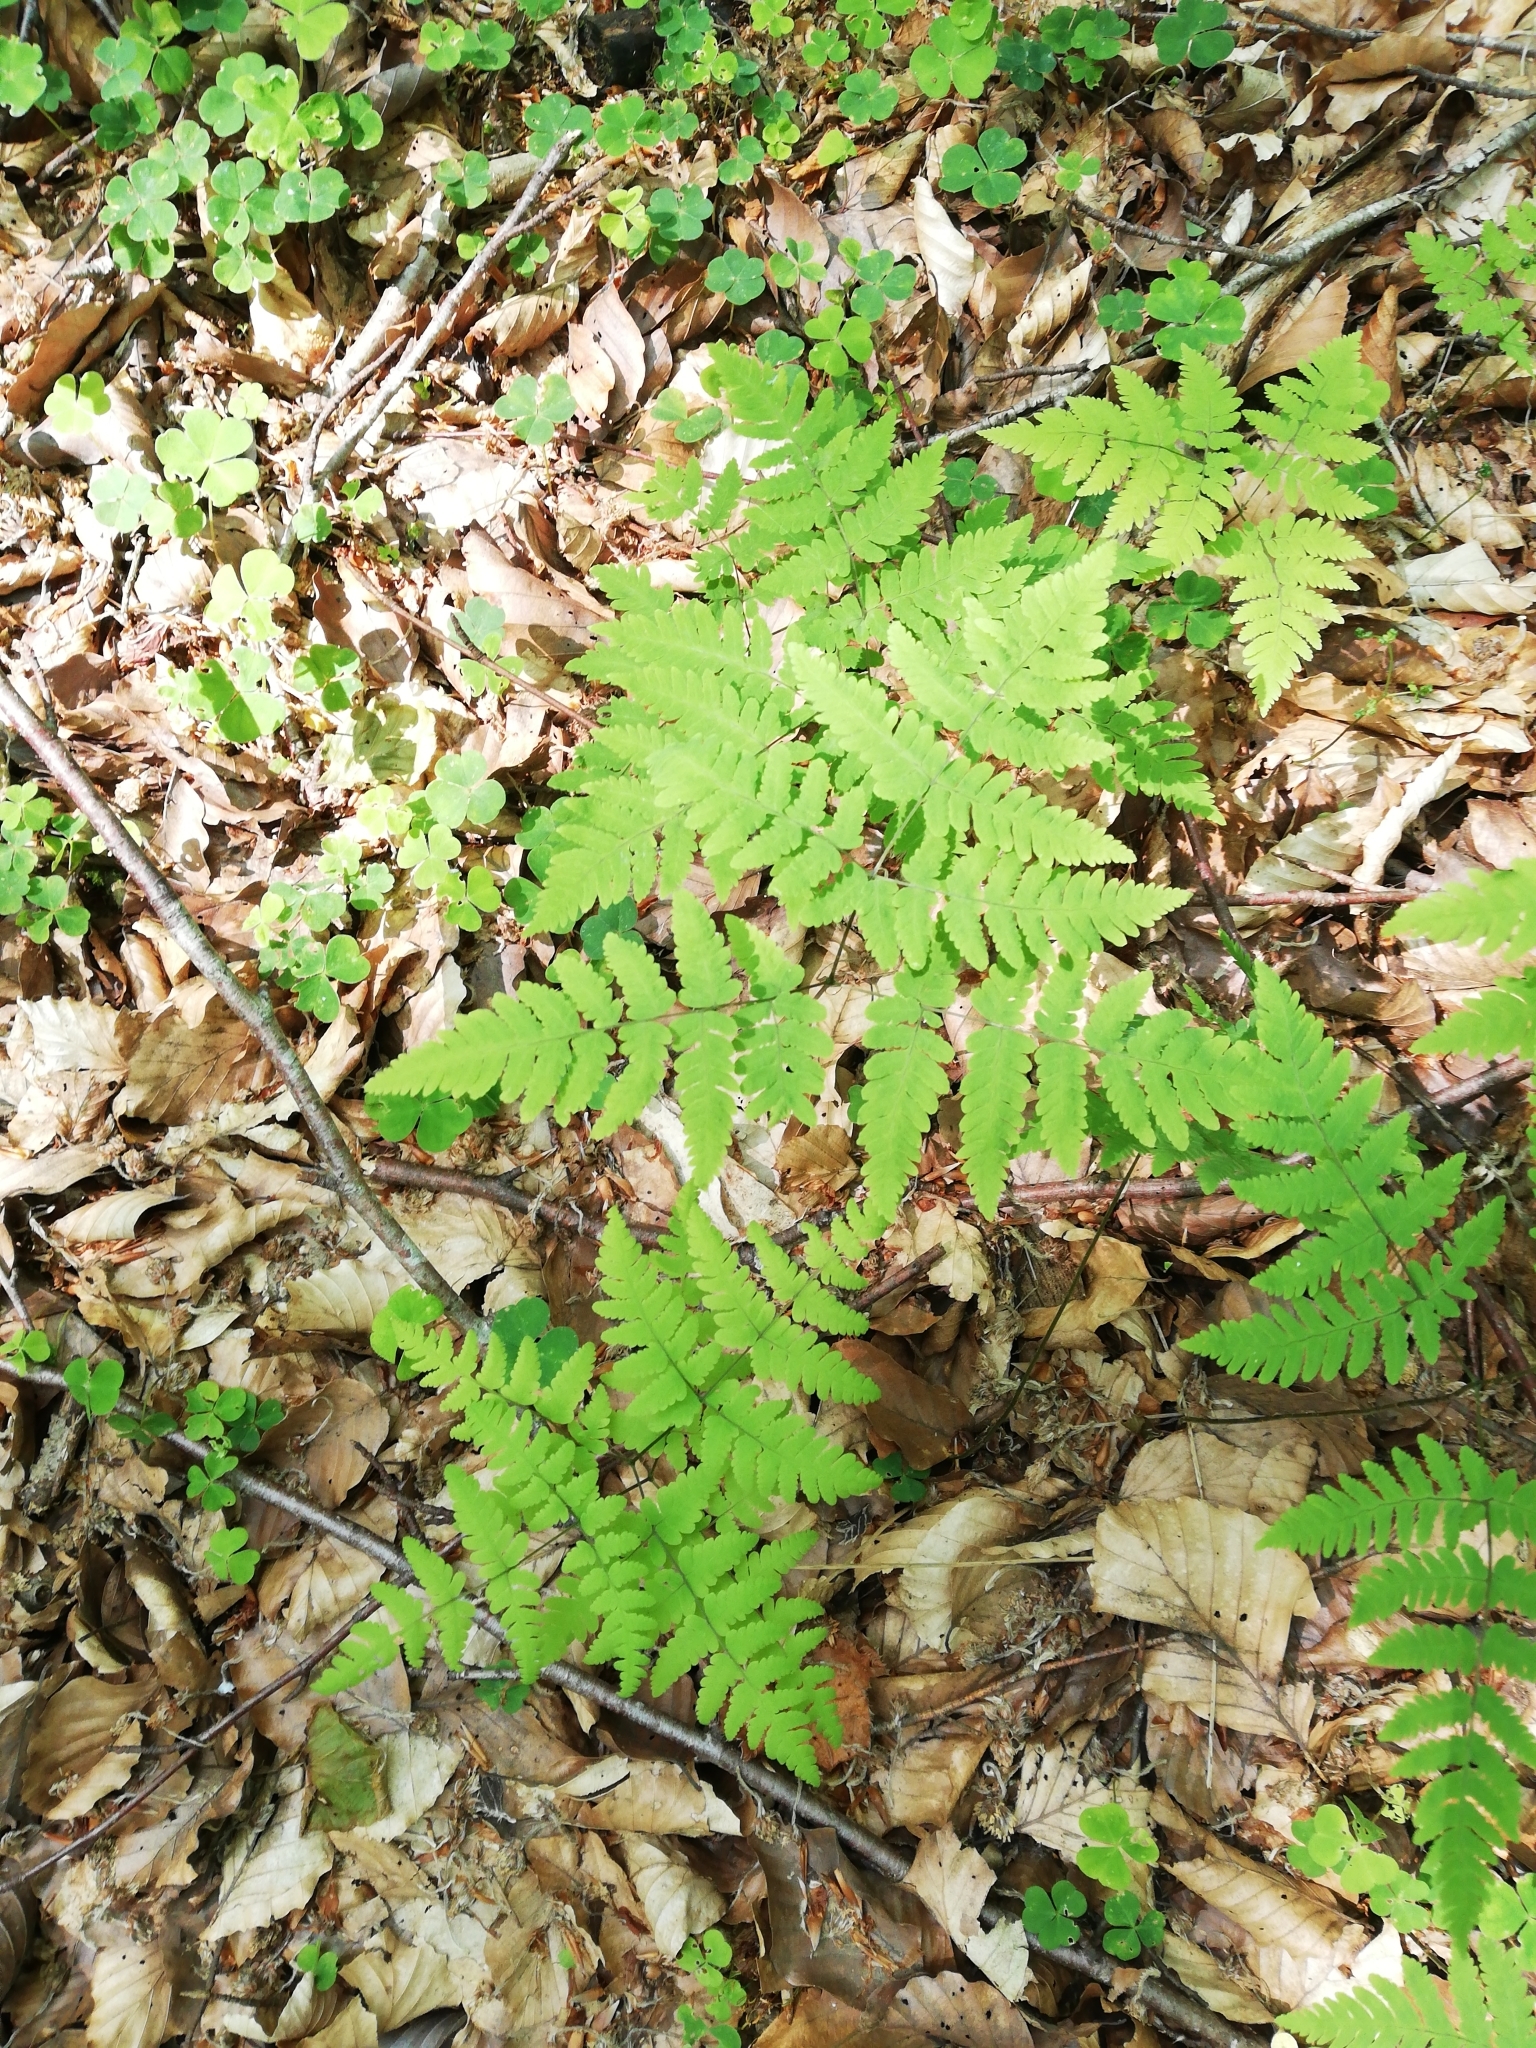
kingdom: Plantae
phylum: Tracheophyta
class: Polypodiopsida
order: Polypodiales
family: Cystopteridaceae
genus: Gymnocarpium
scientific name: Gymnocarpium dryopteris
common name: Oak fern
